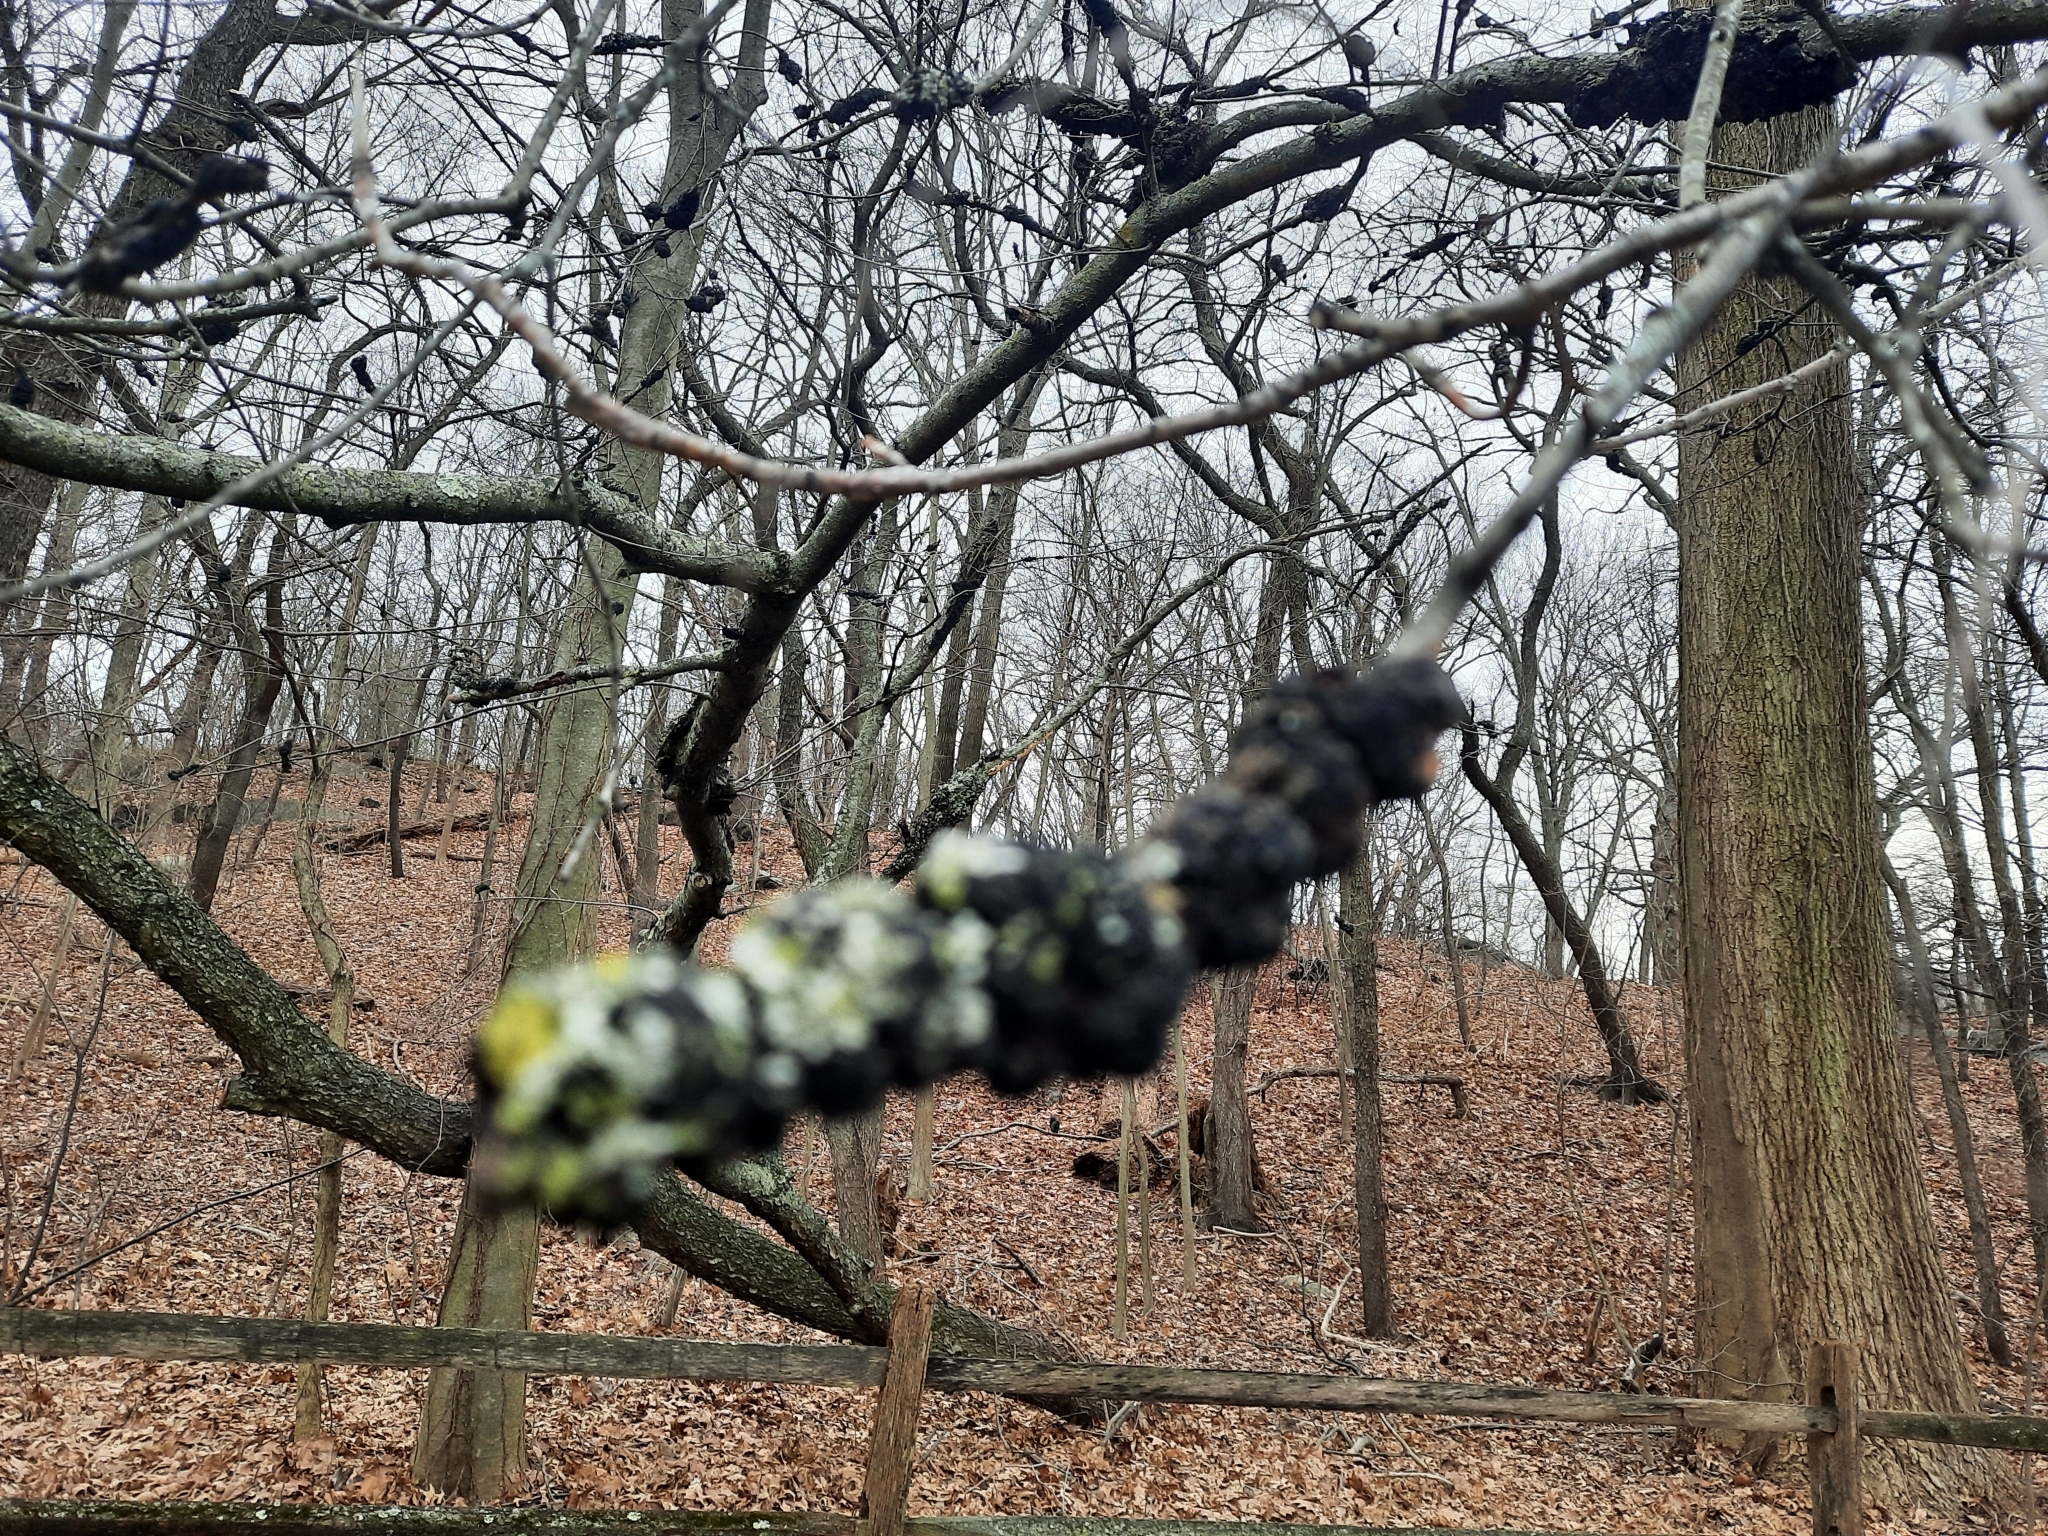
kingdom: Fungi
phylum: Ascomycota
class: Dothideomycetes
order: Venturiales
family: Venturiaceae
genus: Apiosporina
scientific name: Apiosporina morbosa
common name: Black knot
